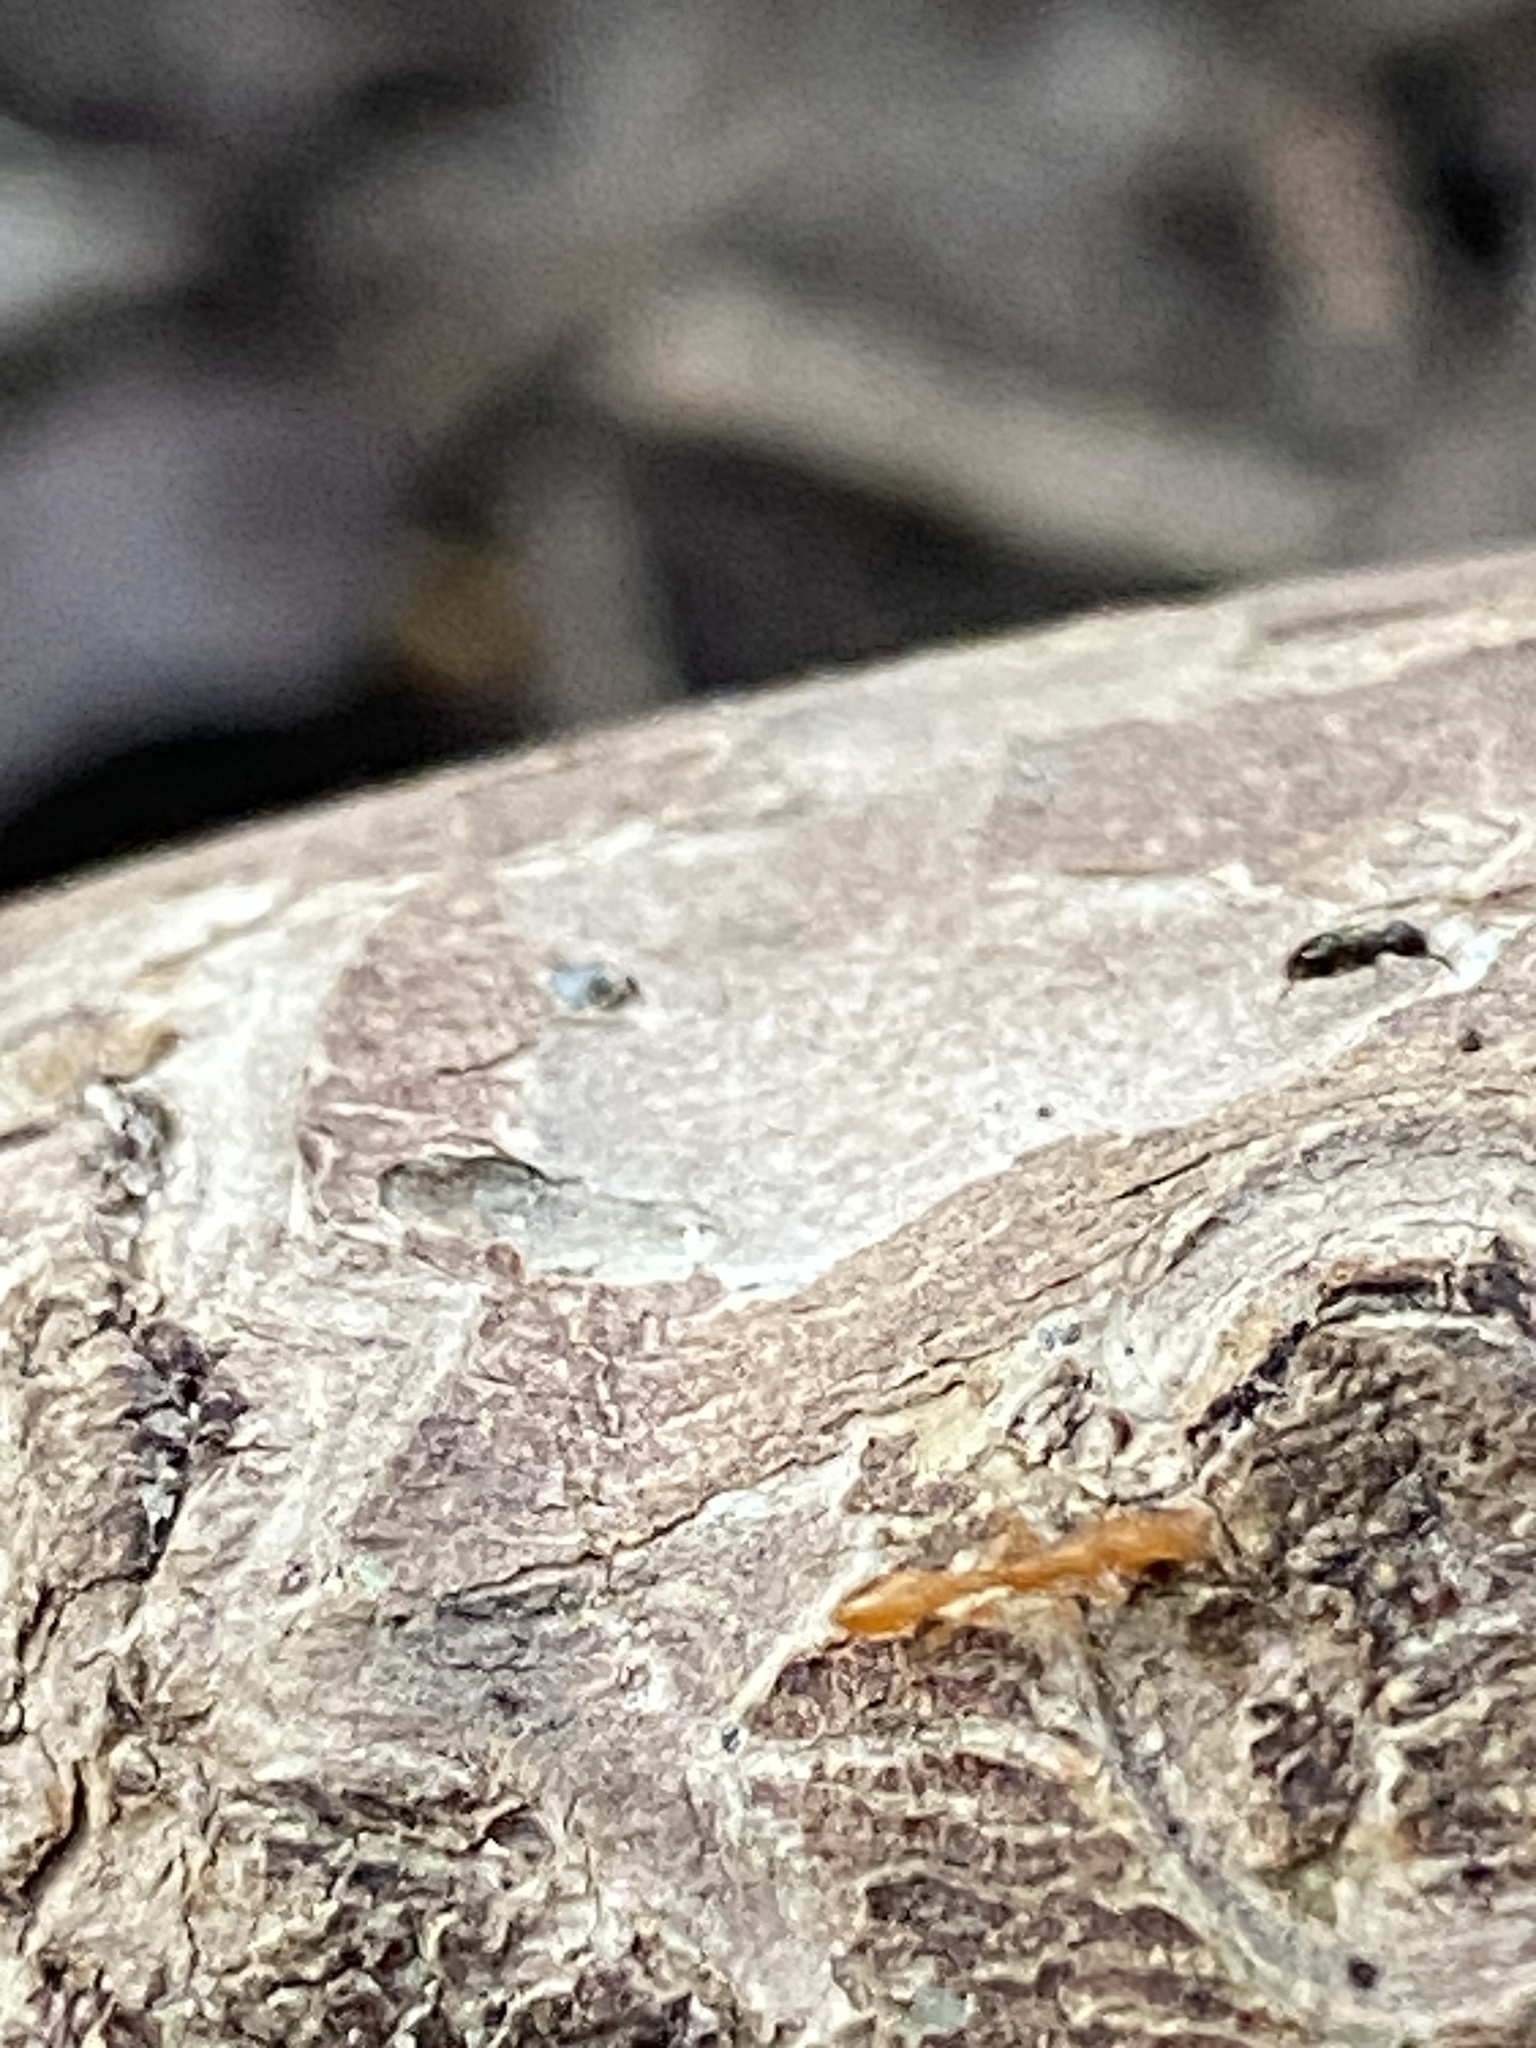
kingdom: Animalia
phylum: Arthropoda
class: Insecta
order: Hymenoptera
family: Formicidae
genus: Brachymyrmex
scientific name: Brachymyrmex patagonicus
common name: Dark rover ant
